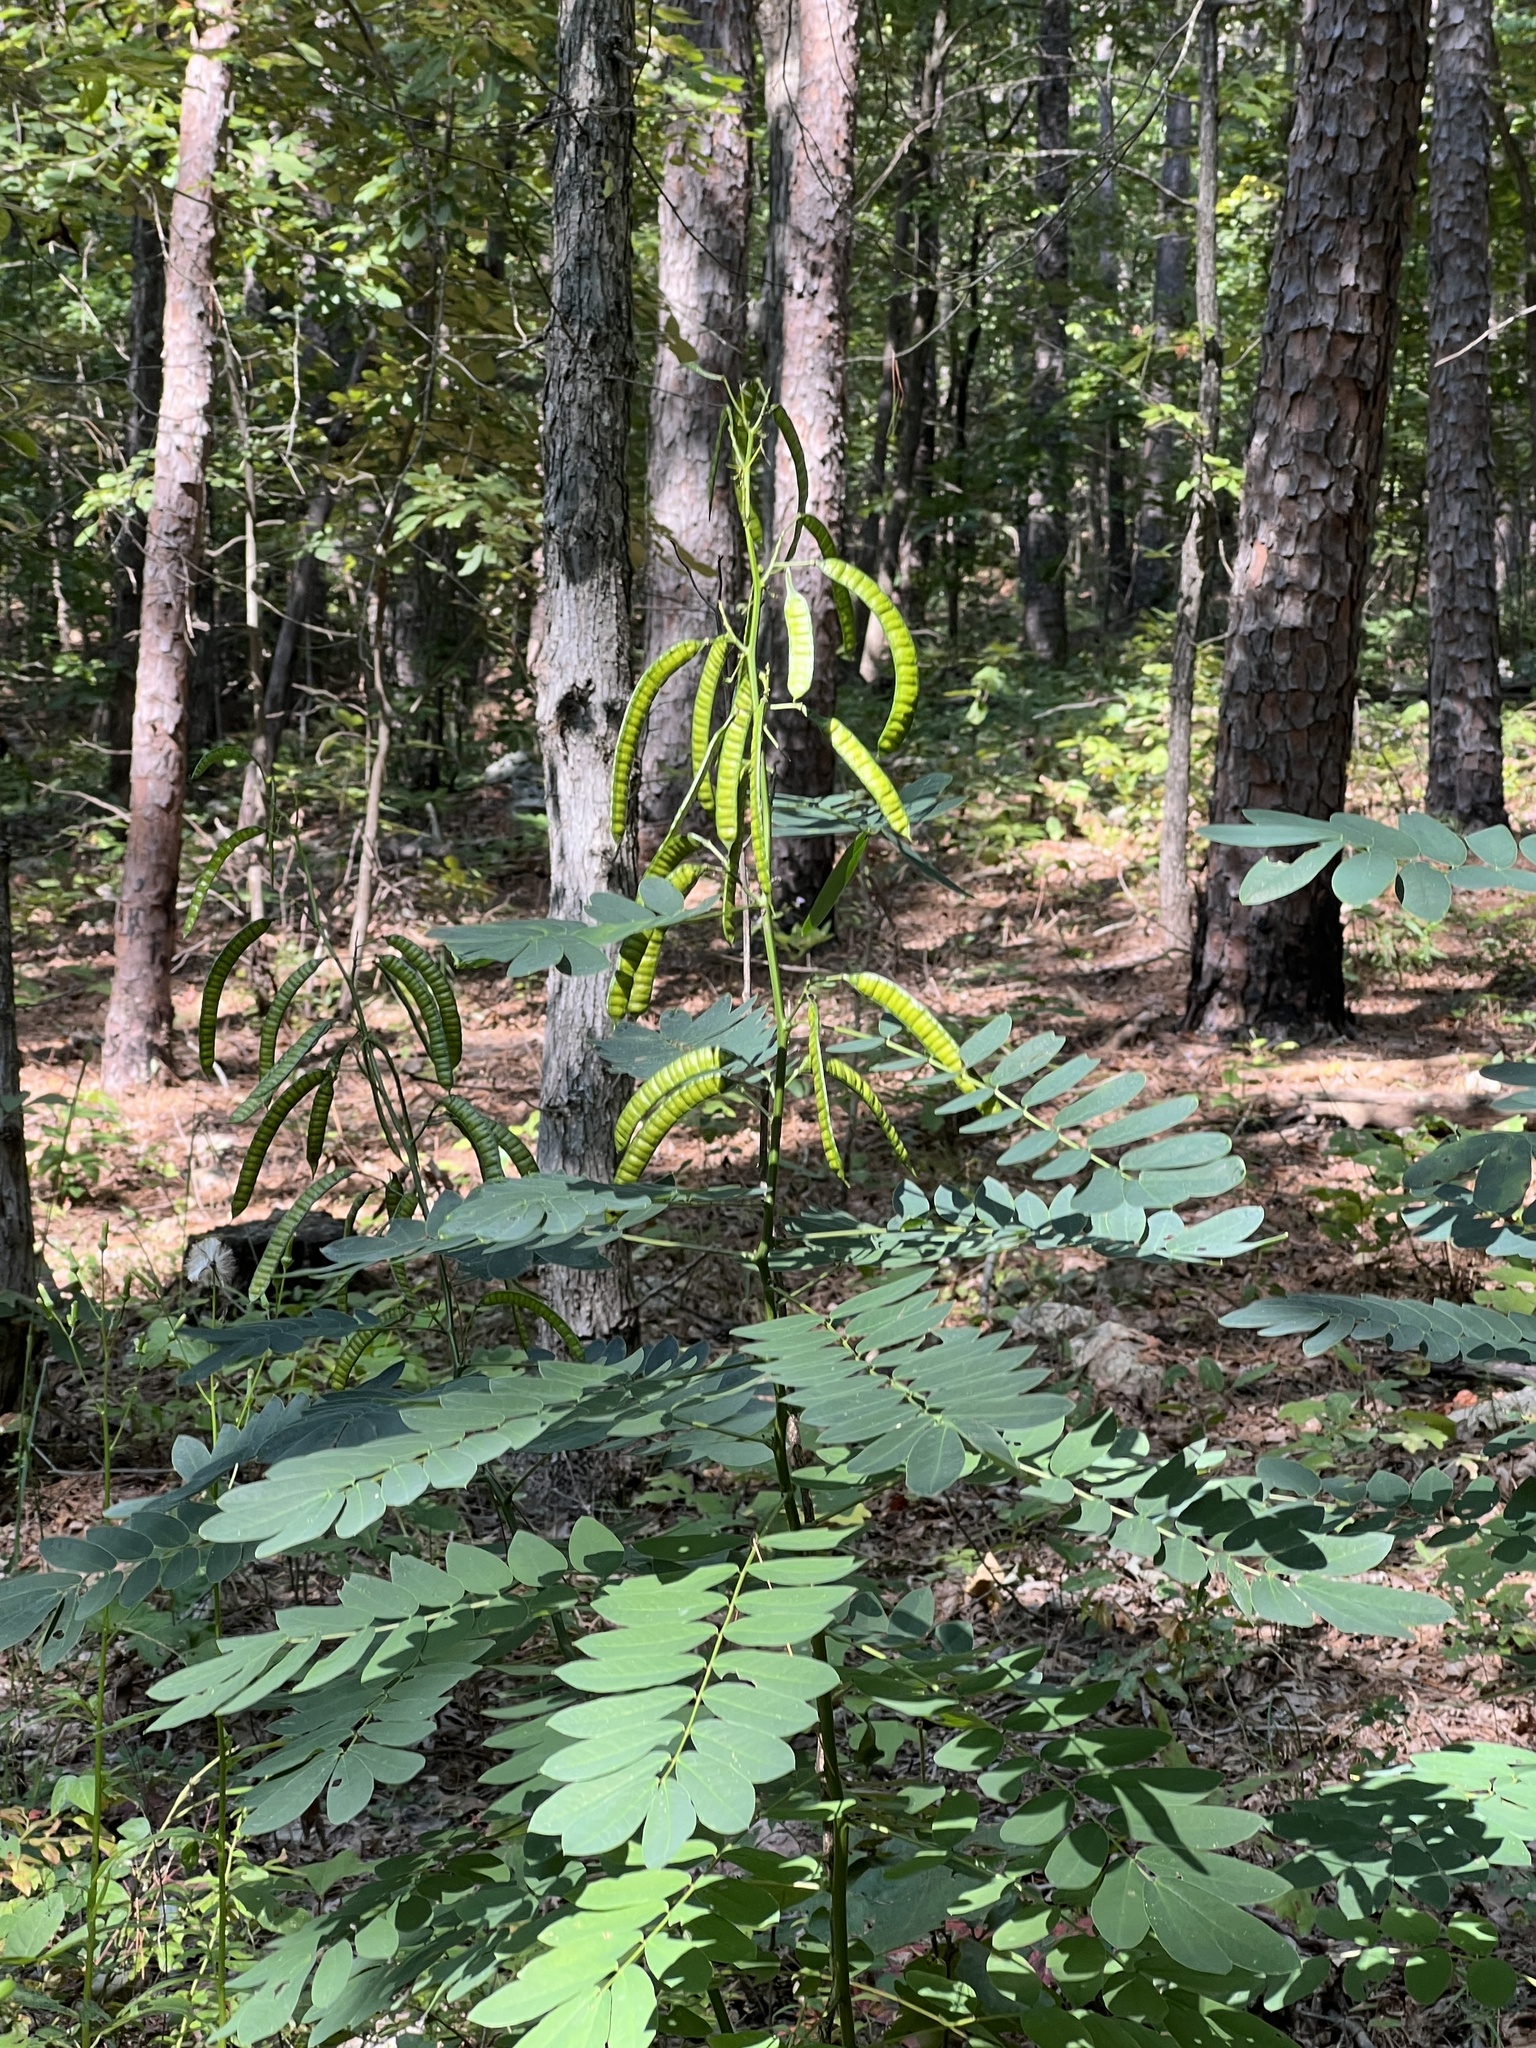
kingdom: Plantae
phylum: Tracheophyta
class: Magnoliopsida
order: Fabales
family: Fabaceae
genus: Senna
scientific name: Senna marilandica
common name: American senna
